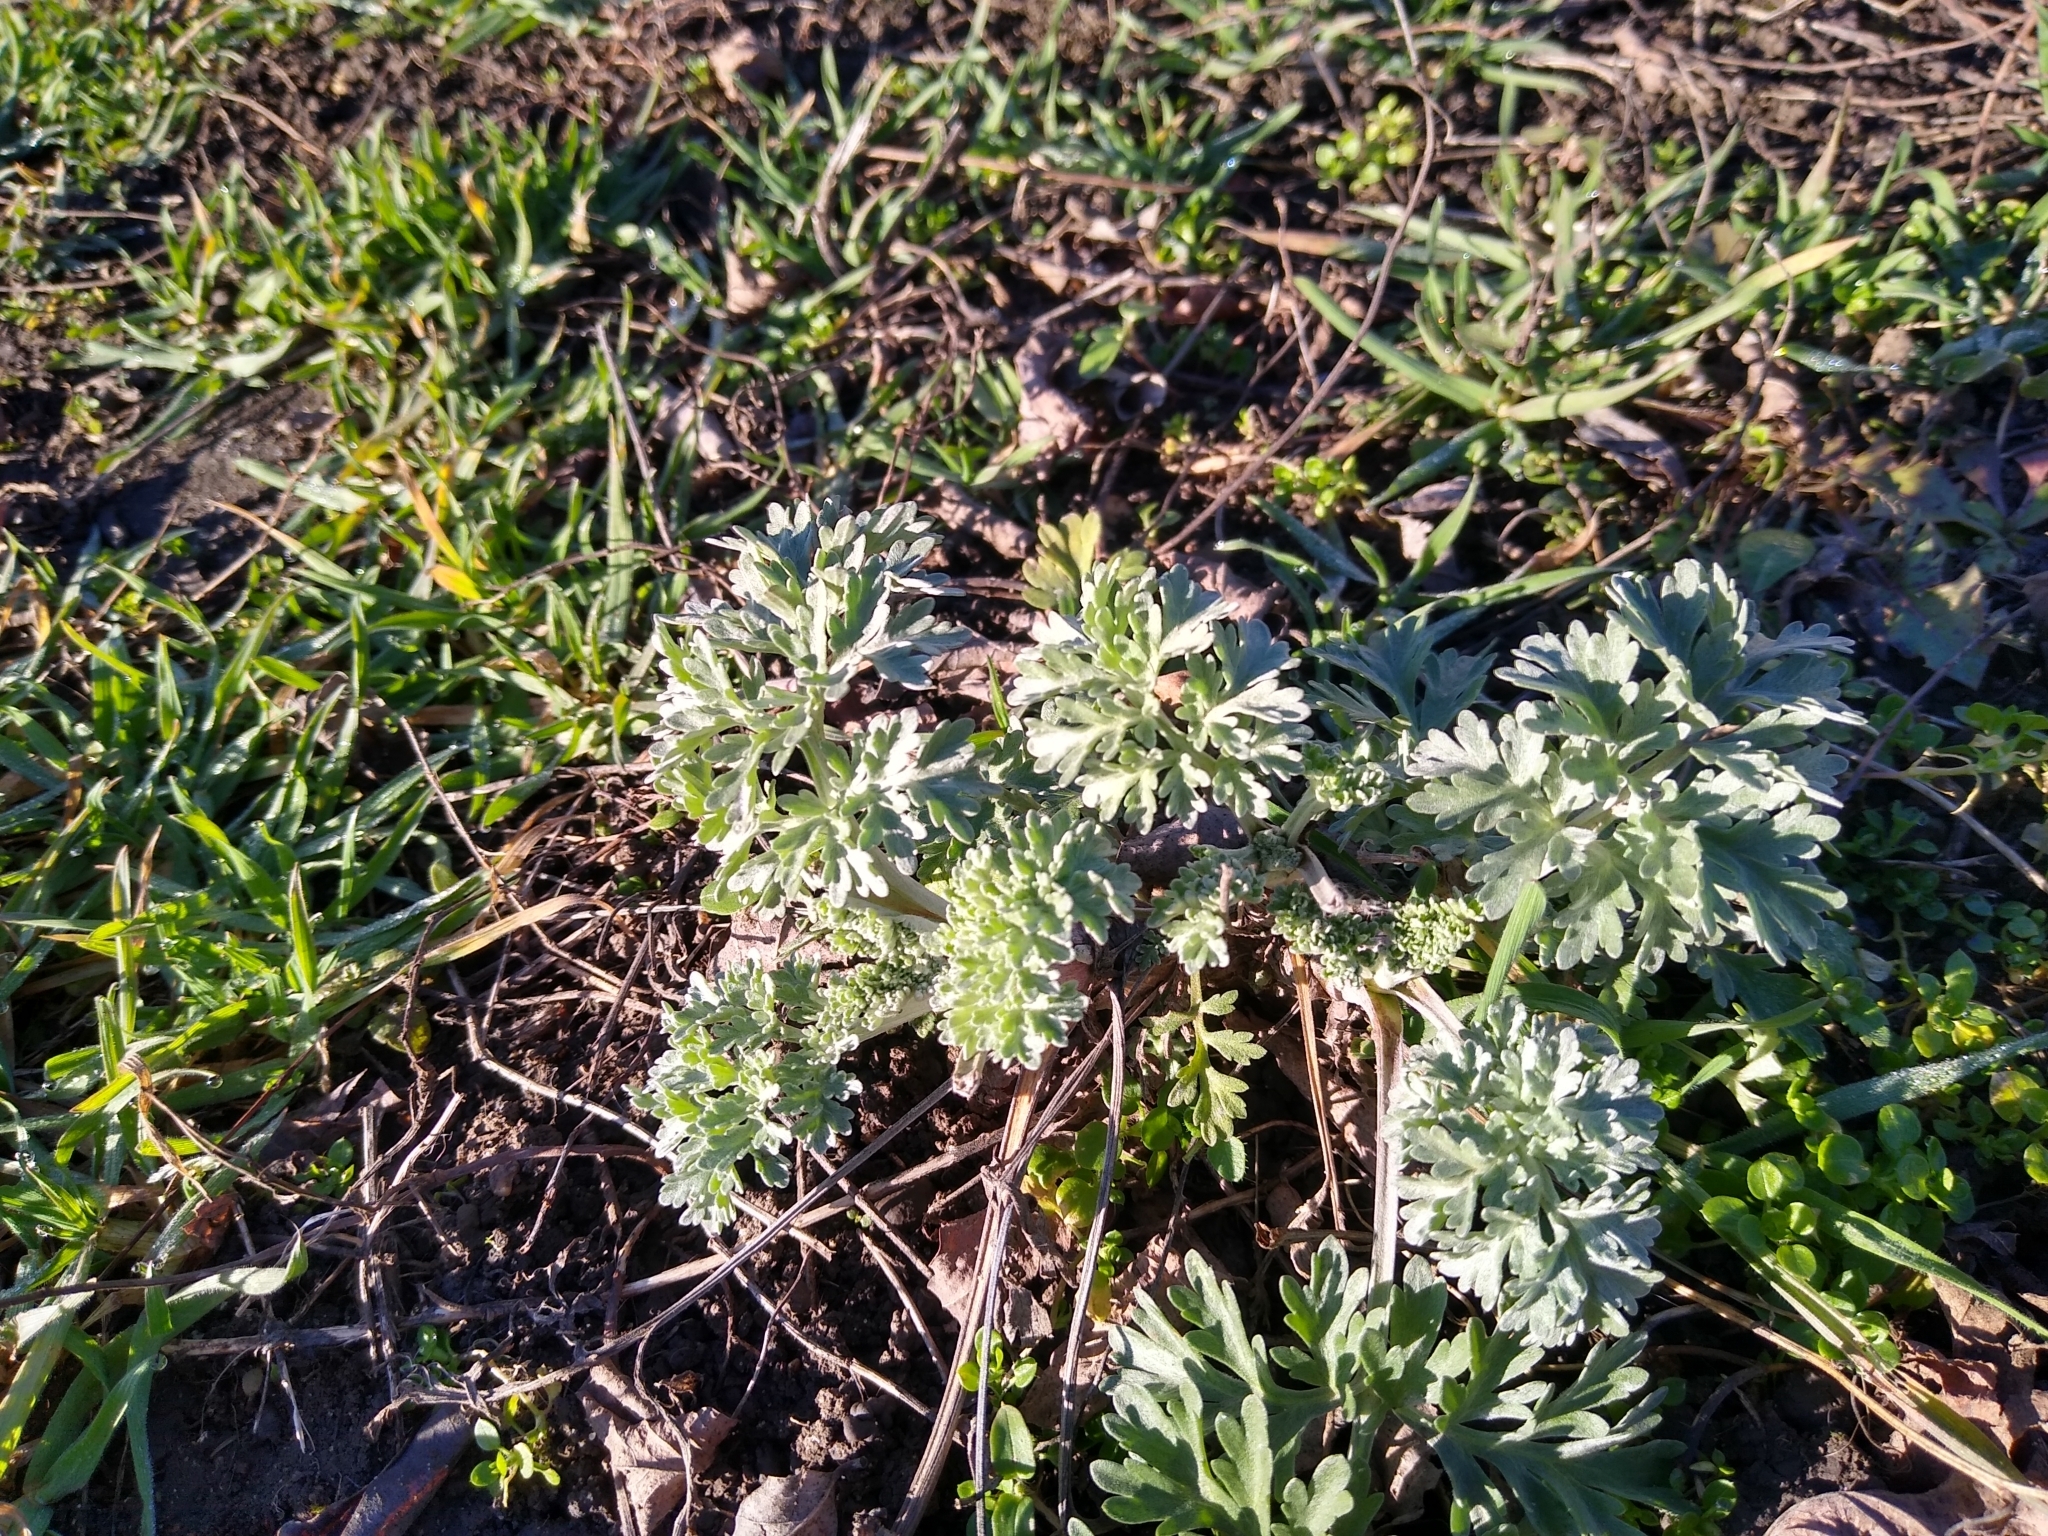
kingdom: Plantae
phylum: Tracheophyta
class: Magnoliopsida
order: Asterales
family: Asteraceae
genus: Artemisia
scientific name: Artemisia absinthium
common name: Wormwood
